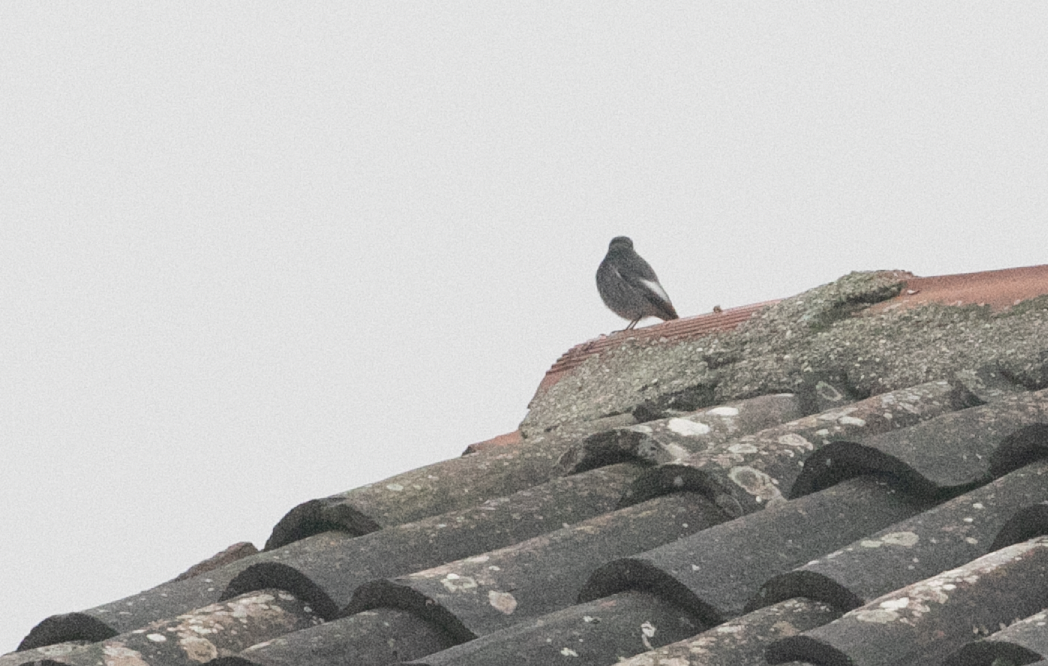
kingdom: Animalia
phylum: Chordata
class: Aves
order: Passeriformes
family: Muscicapidae
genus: Phoenicurus
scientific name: Phoenicurus ochruros
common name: Black redstart
